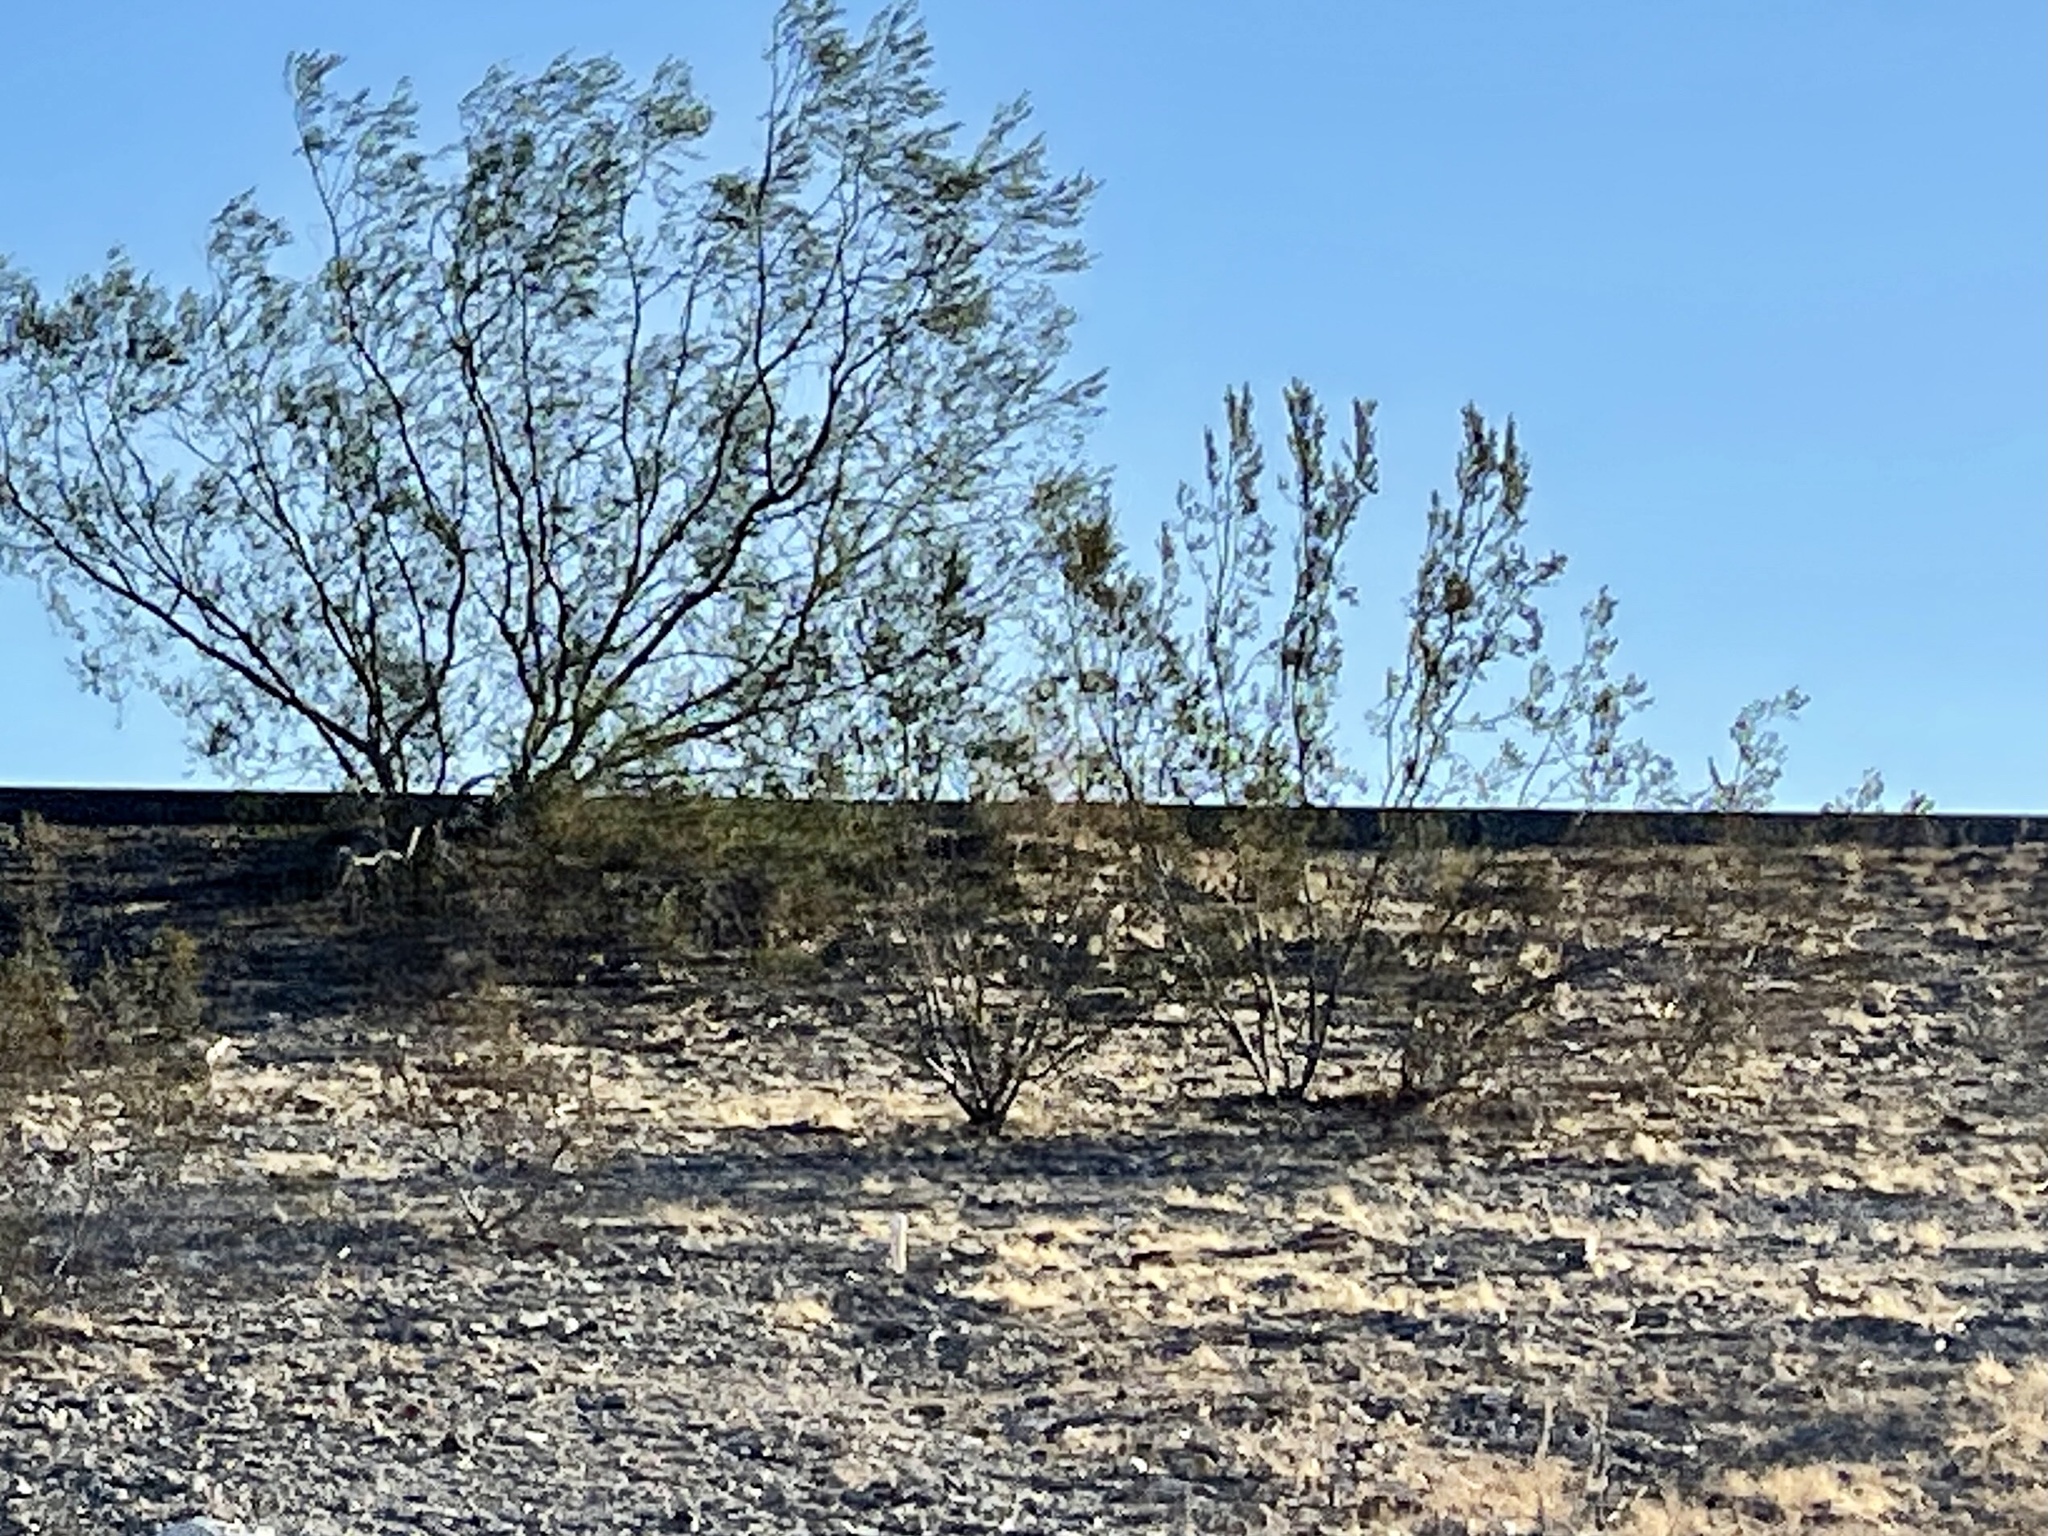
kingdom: Plantae
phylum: Tracheophyta
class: Magnoliopsida
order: Zygophyllales
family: Zygophyllaceae
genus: Larrea
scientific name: Larrea tridentata
